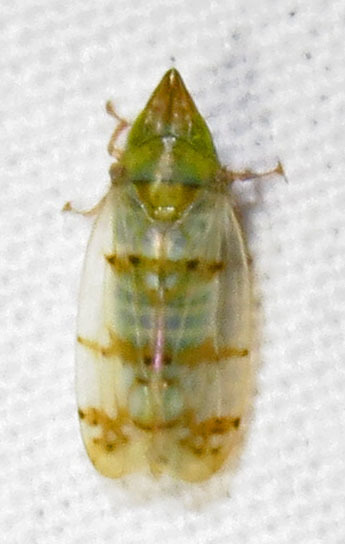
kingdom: Animalia
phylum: Arthropoda
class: Insecta
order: Hemiptera
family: Cicadellidae
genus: Japananus
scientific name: Japananus hyalinus
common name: The japanese maple leafhopper
